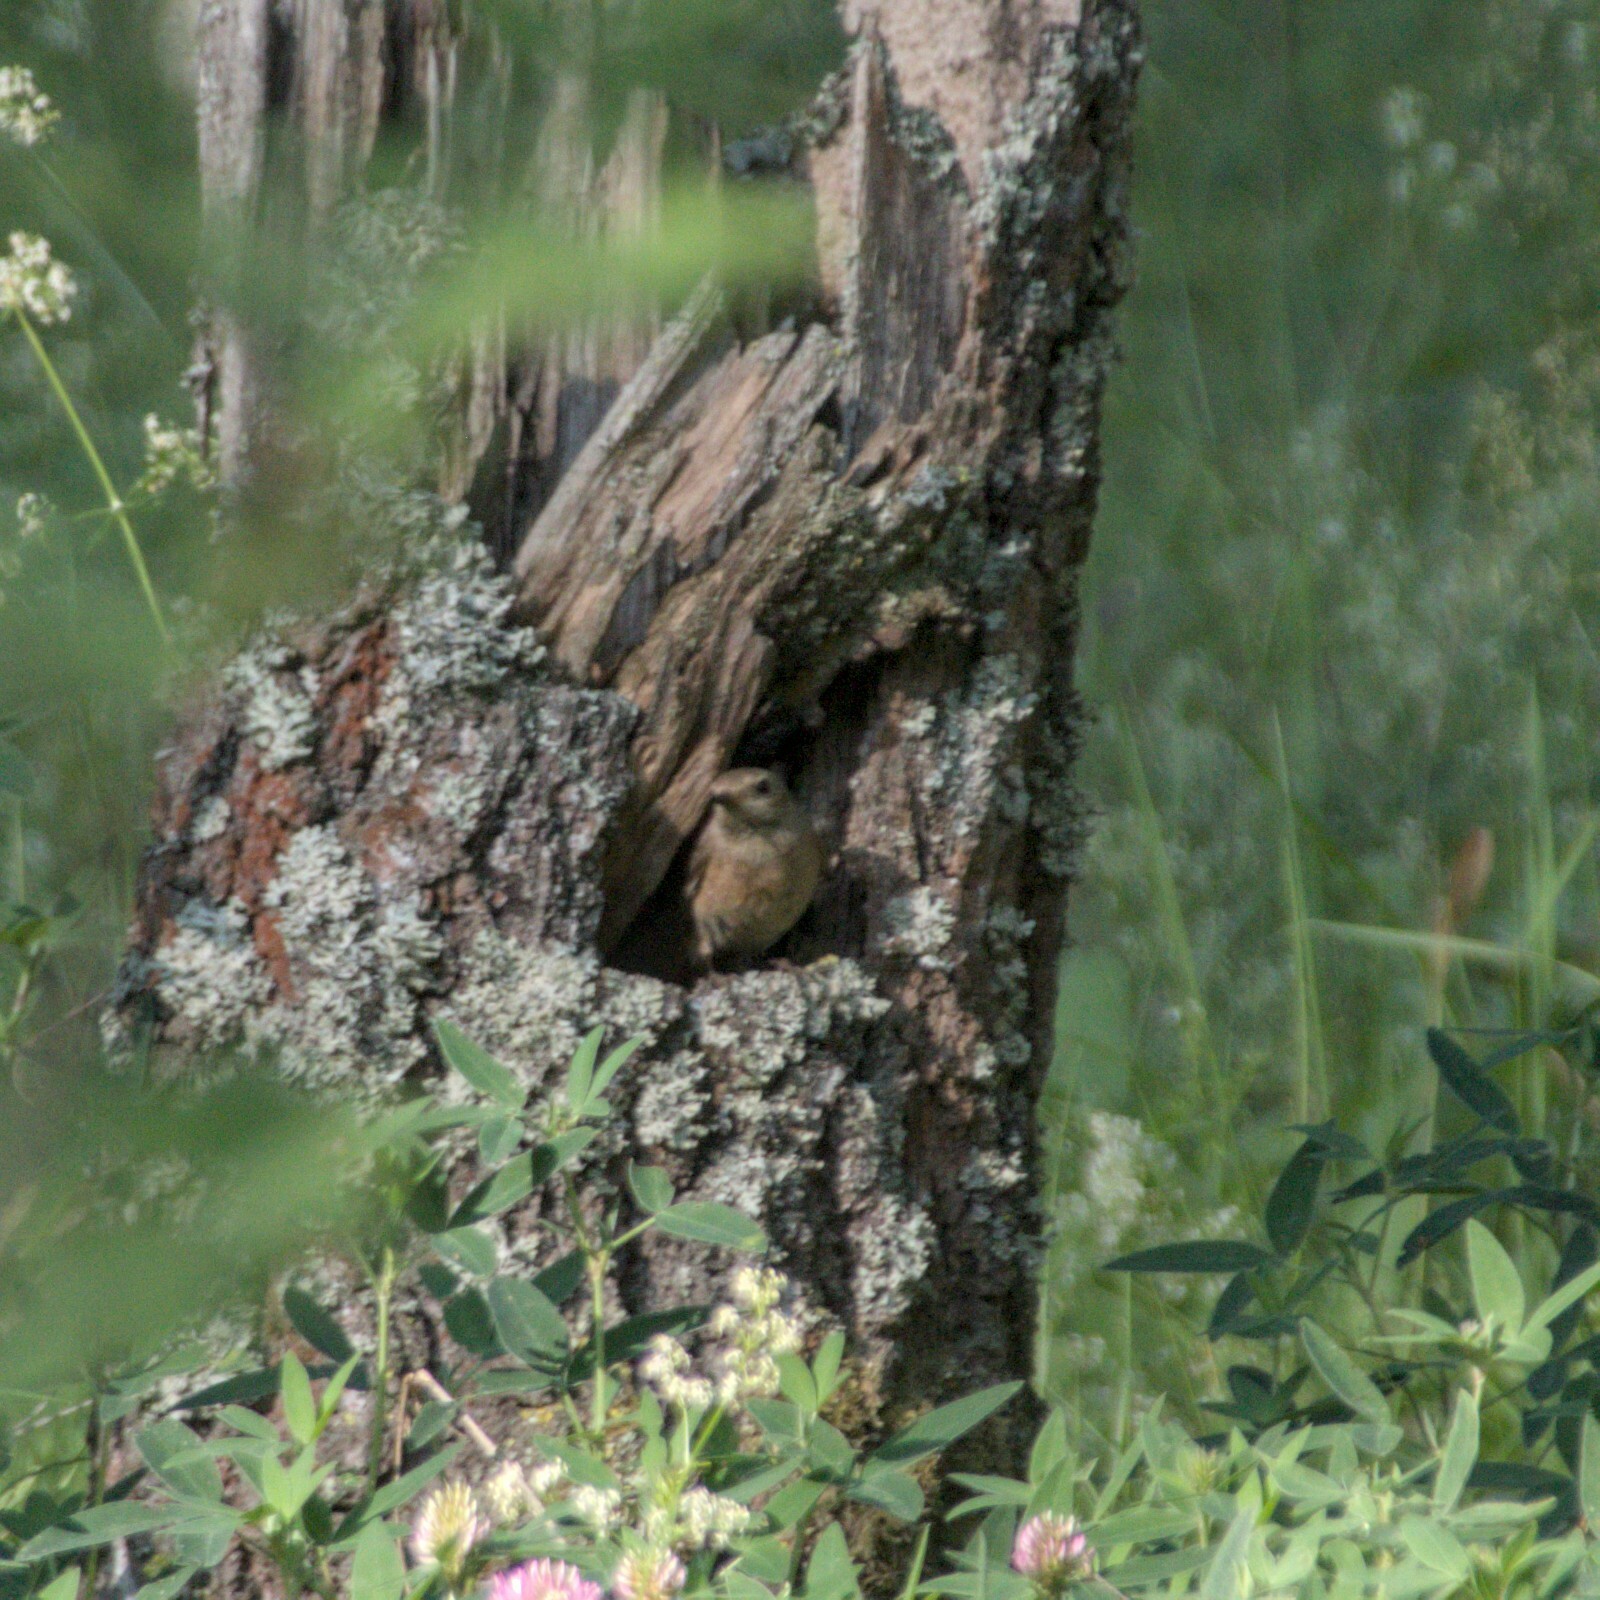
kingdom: Animalia
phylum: Chordata
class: Aves
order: Passeriformes
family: Muscicapidae
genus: Phoenicurus
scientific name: Phoenicurus phoenicurus
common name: Common redstart
